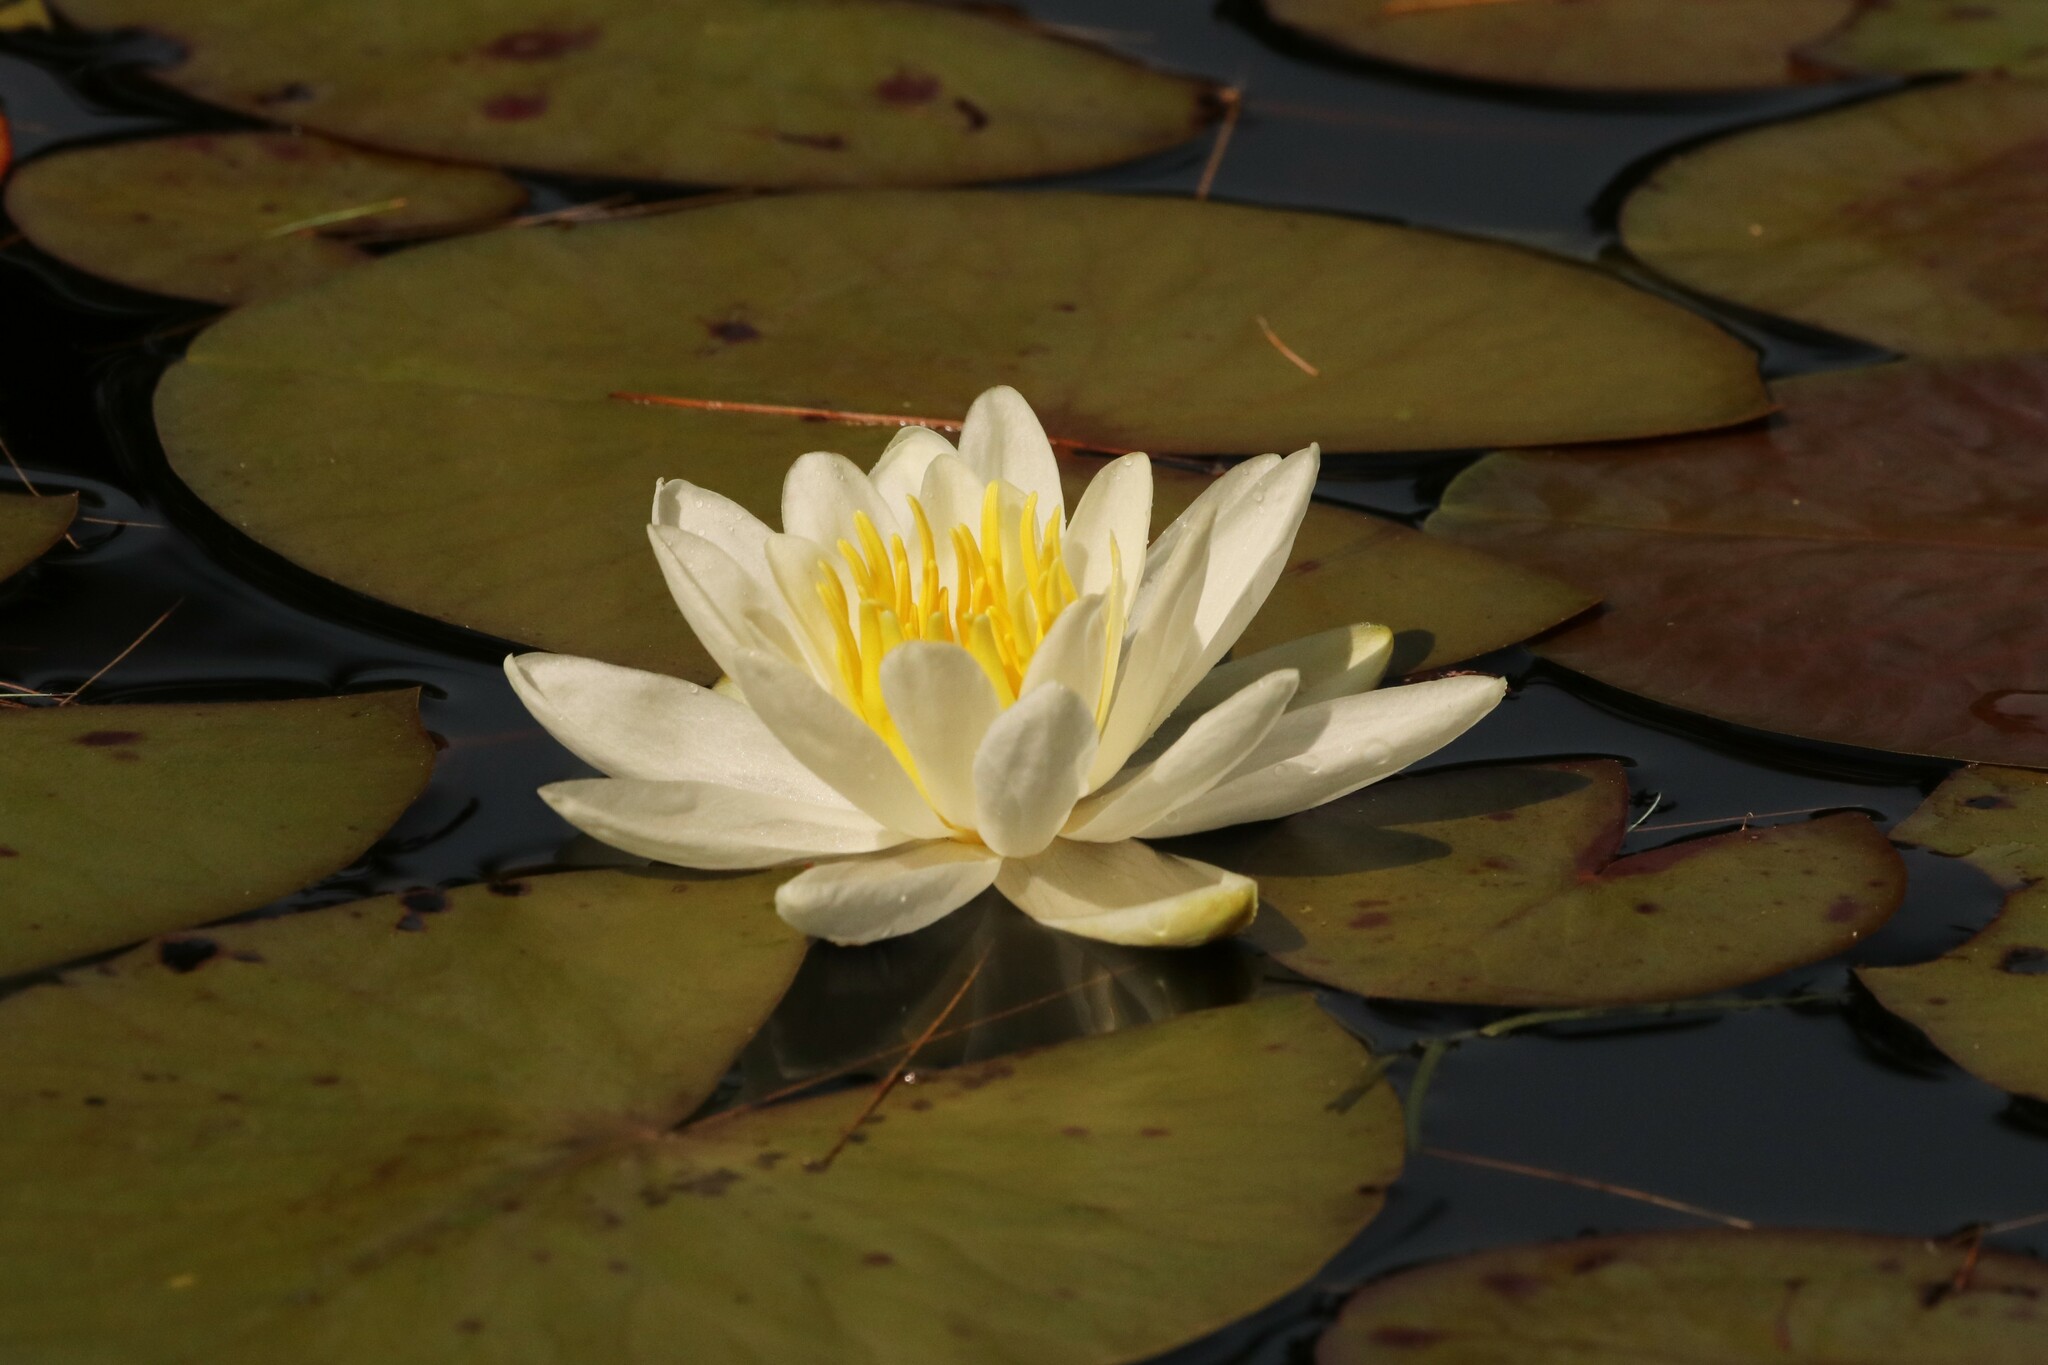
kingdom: Plantae
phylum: Tracheophyta
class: Magnoliopsida
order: Nymphaeales
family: Nymphaeaceae
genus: Nymphaea
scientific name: Nymphaea odorata
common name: Fragrant water-lily
